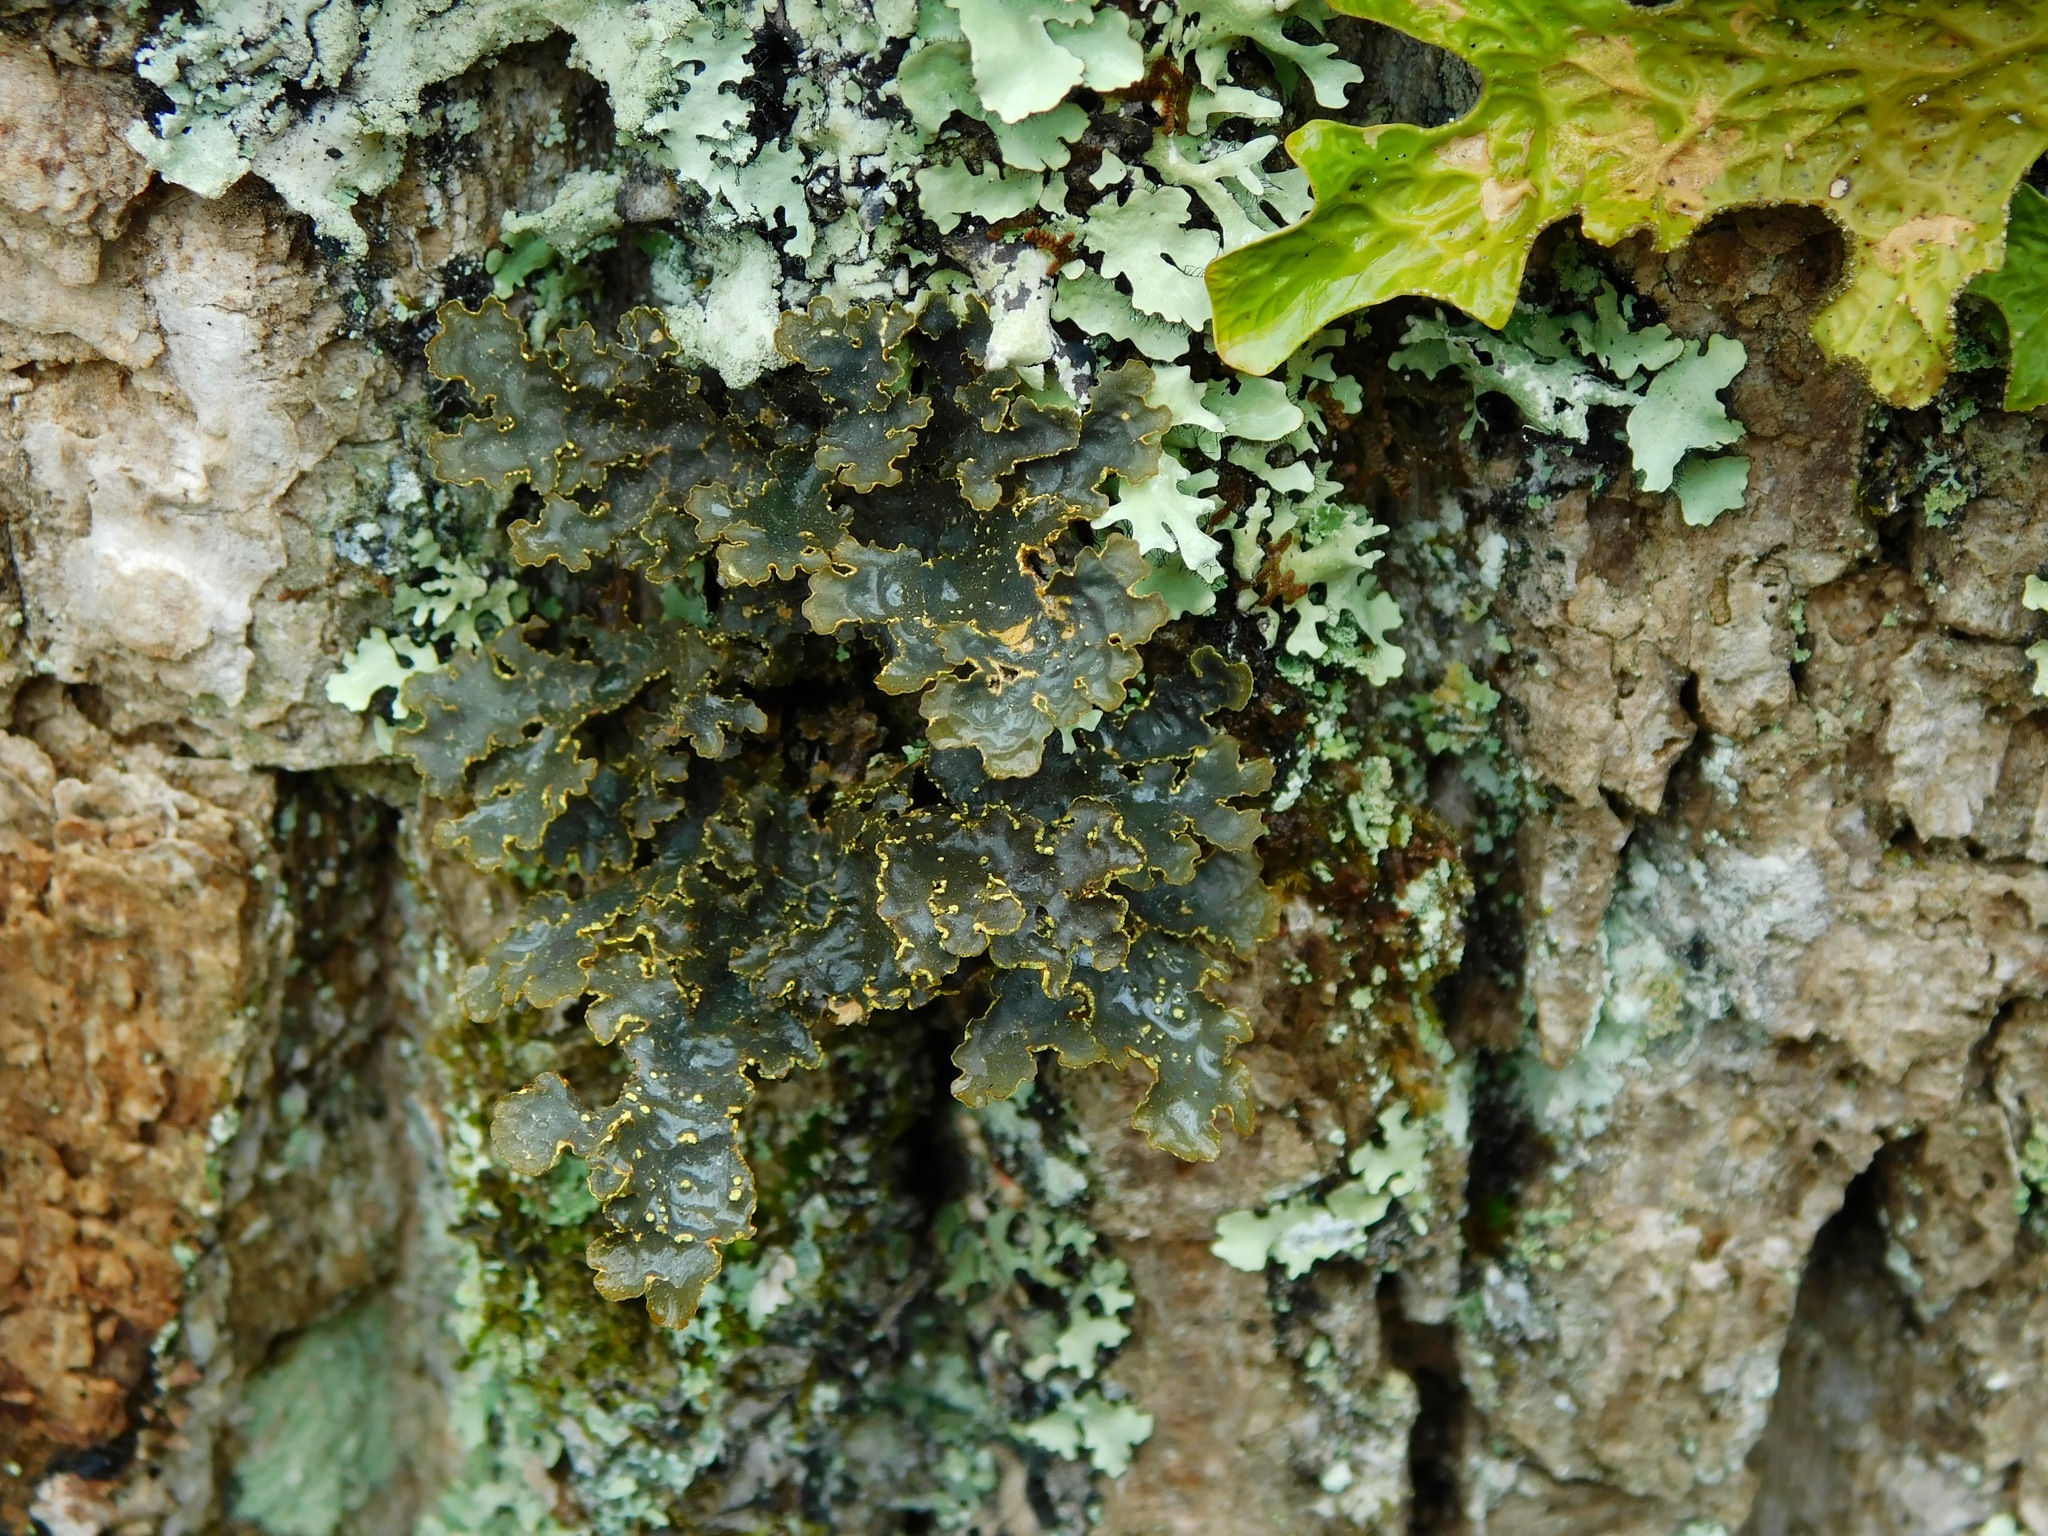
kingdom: Fungi
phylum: Ascomycota
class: Lecanoromycetes
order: Peltigerales
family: Lobariaceae
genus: Pseudocyphellaria
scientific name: Pseudocyphellaria holarctica
